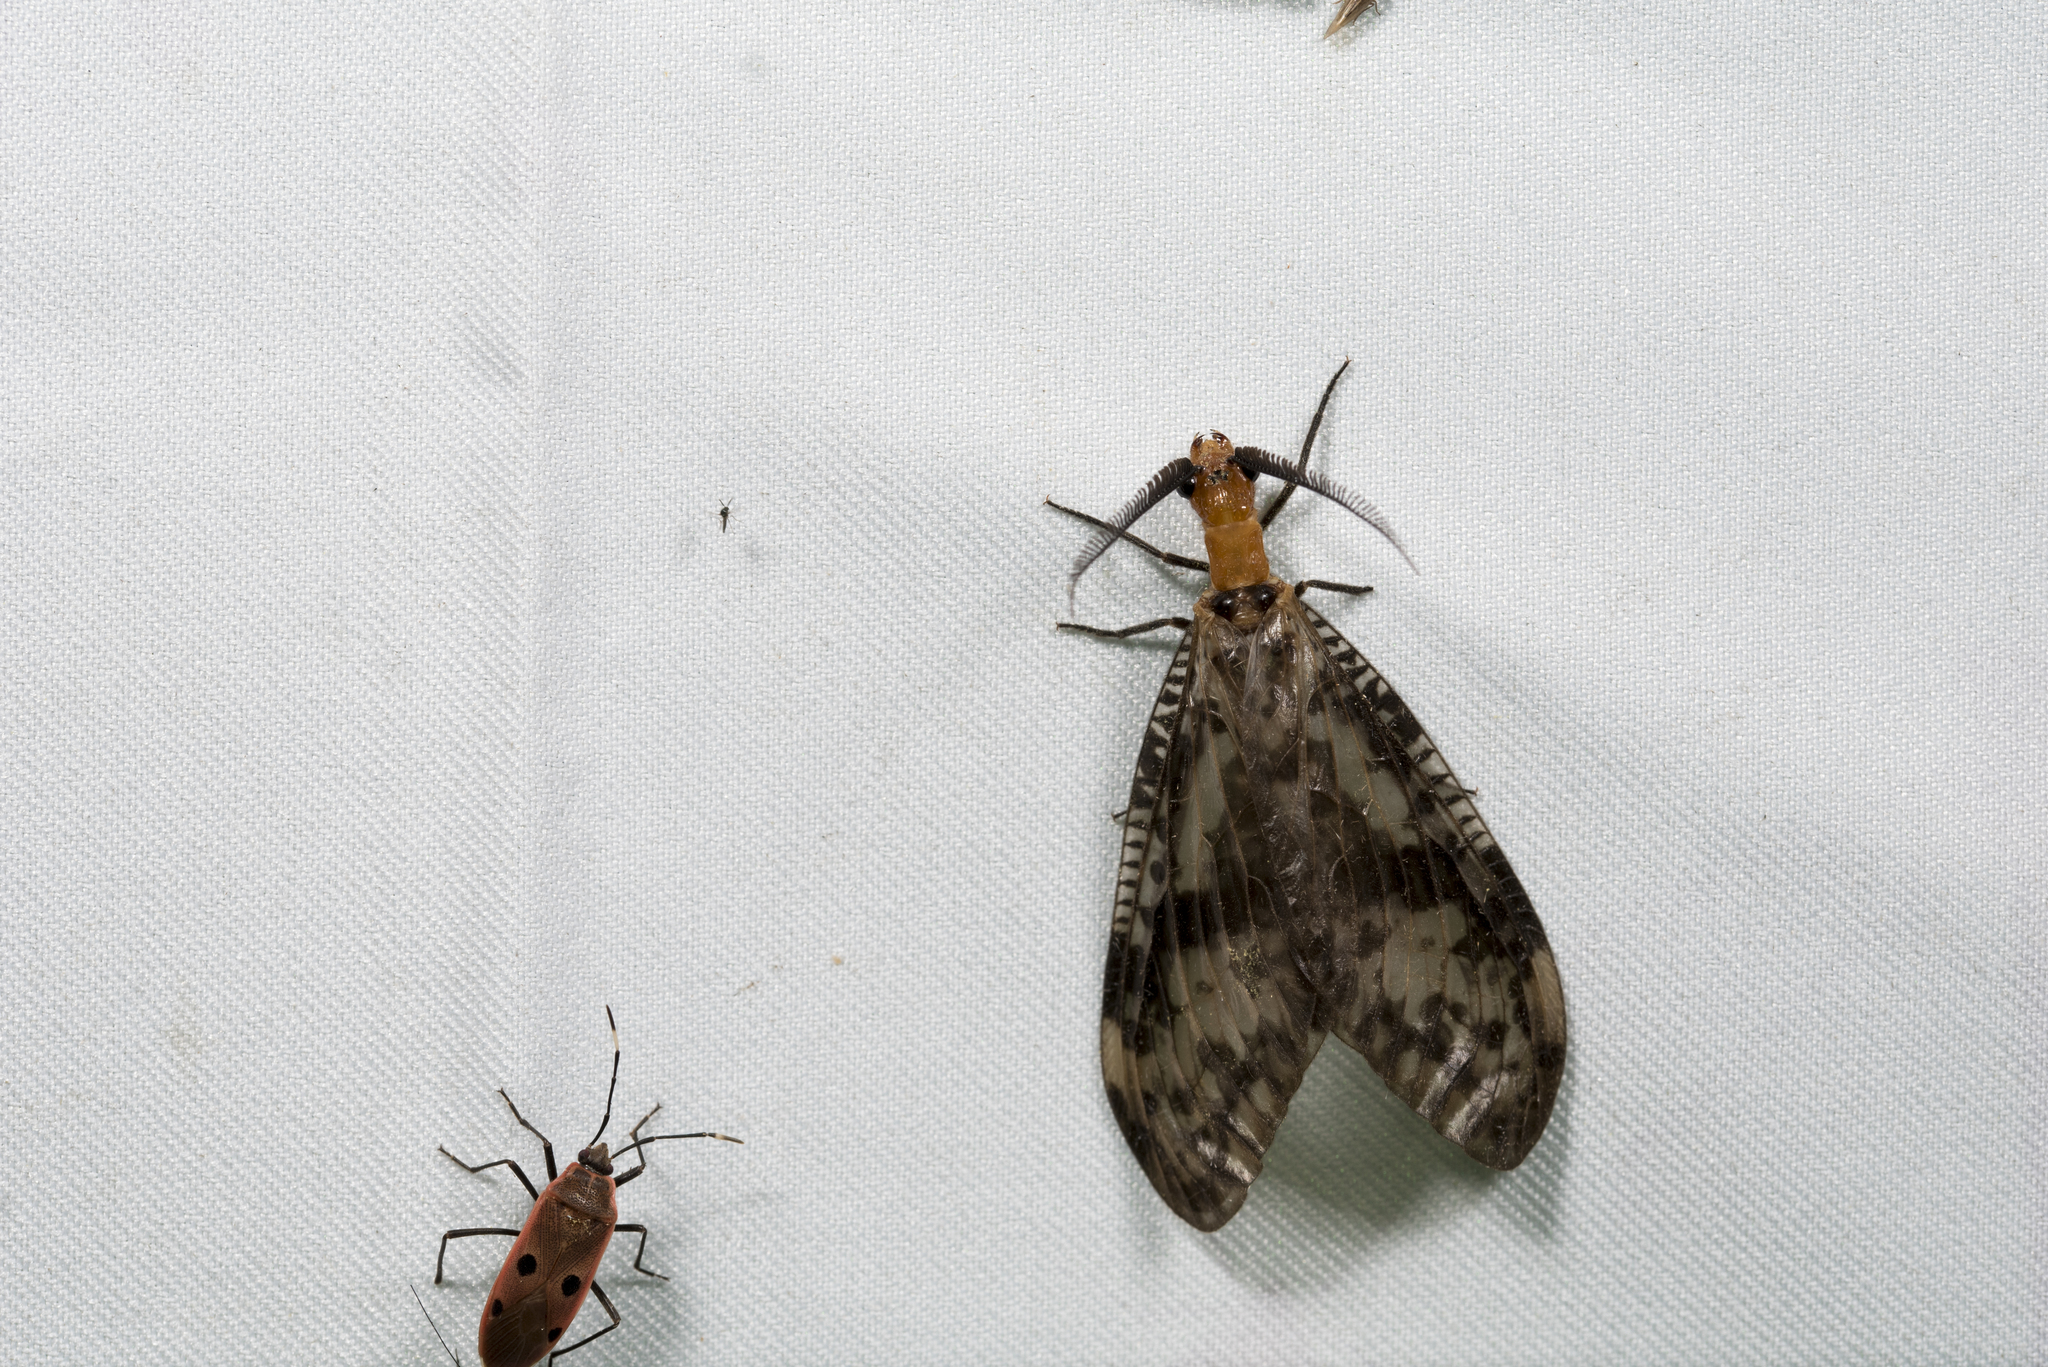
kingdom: Animalia
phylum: Arthropoda
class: Insecta
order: Megaloptera
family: Corydalidae
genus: Neochauliodes
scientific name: Neochauliodes formosanus
